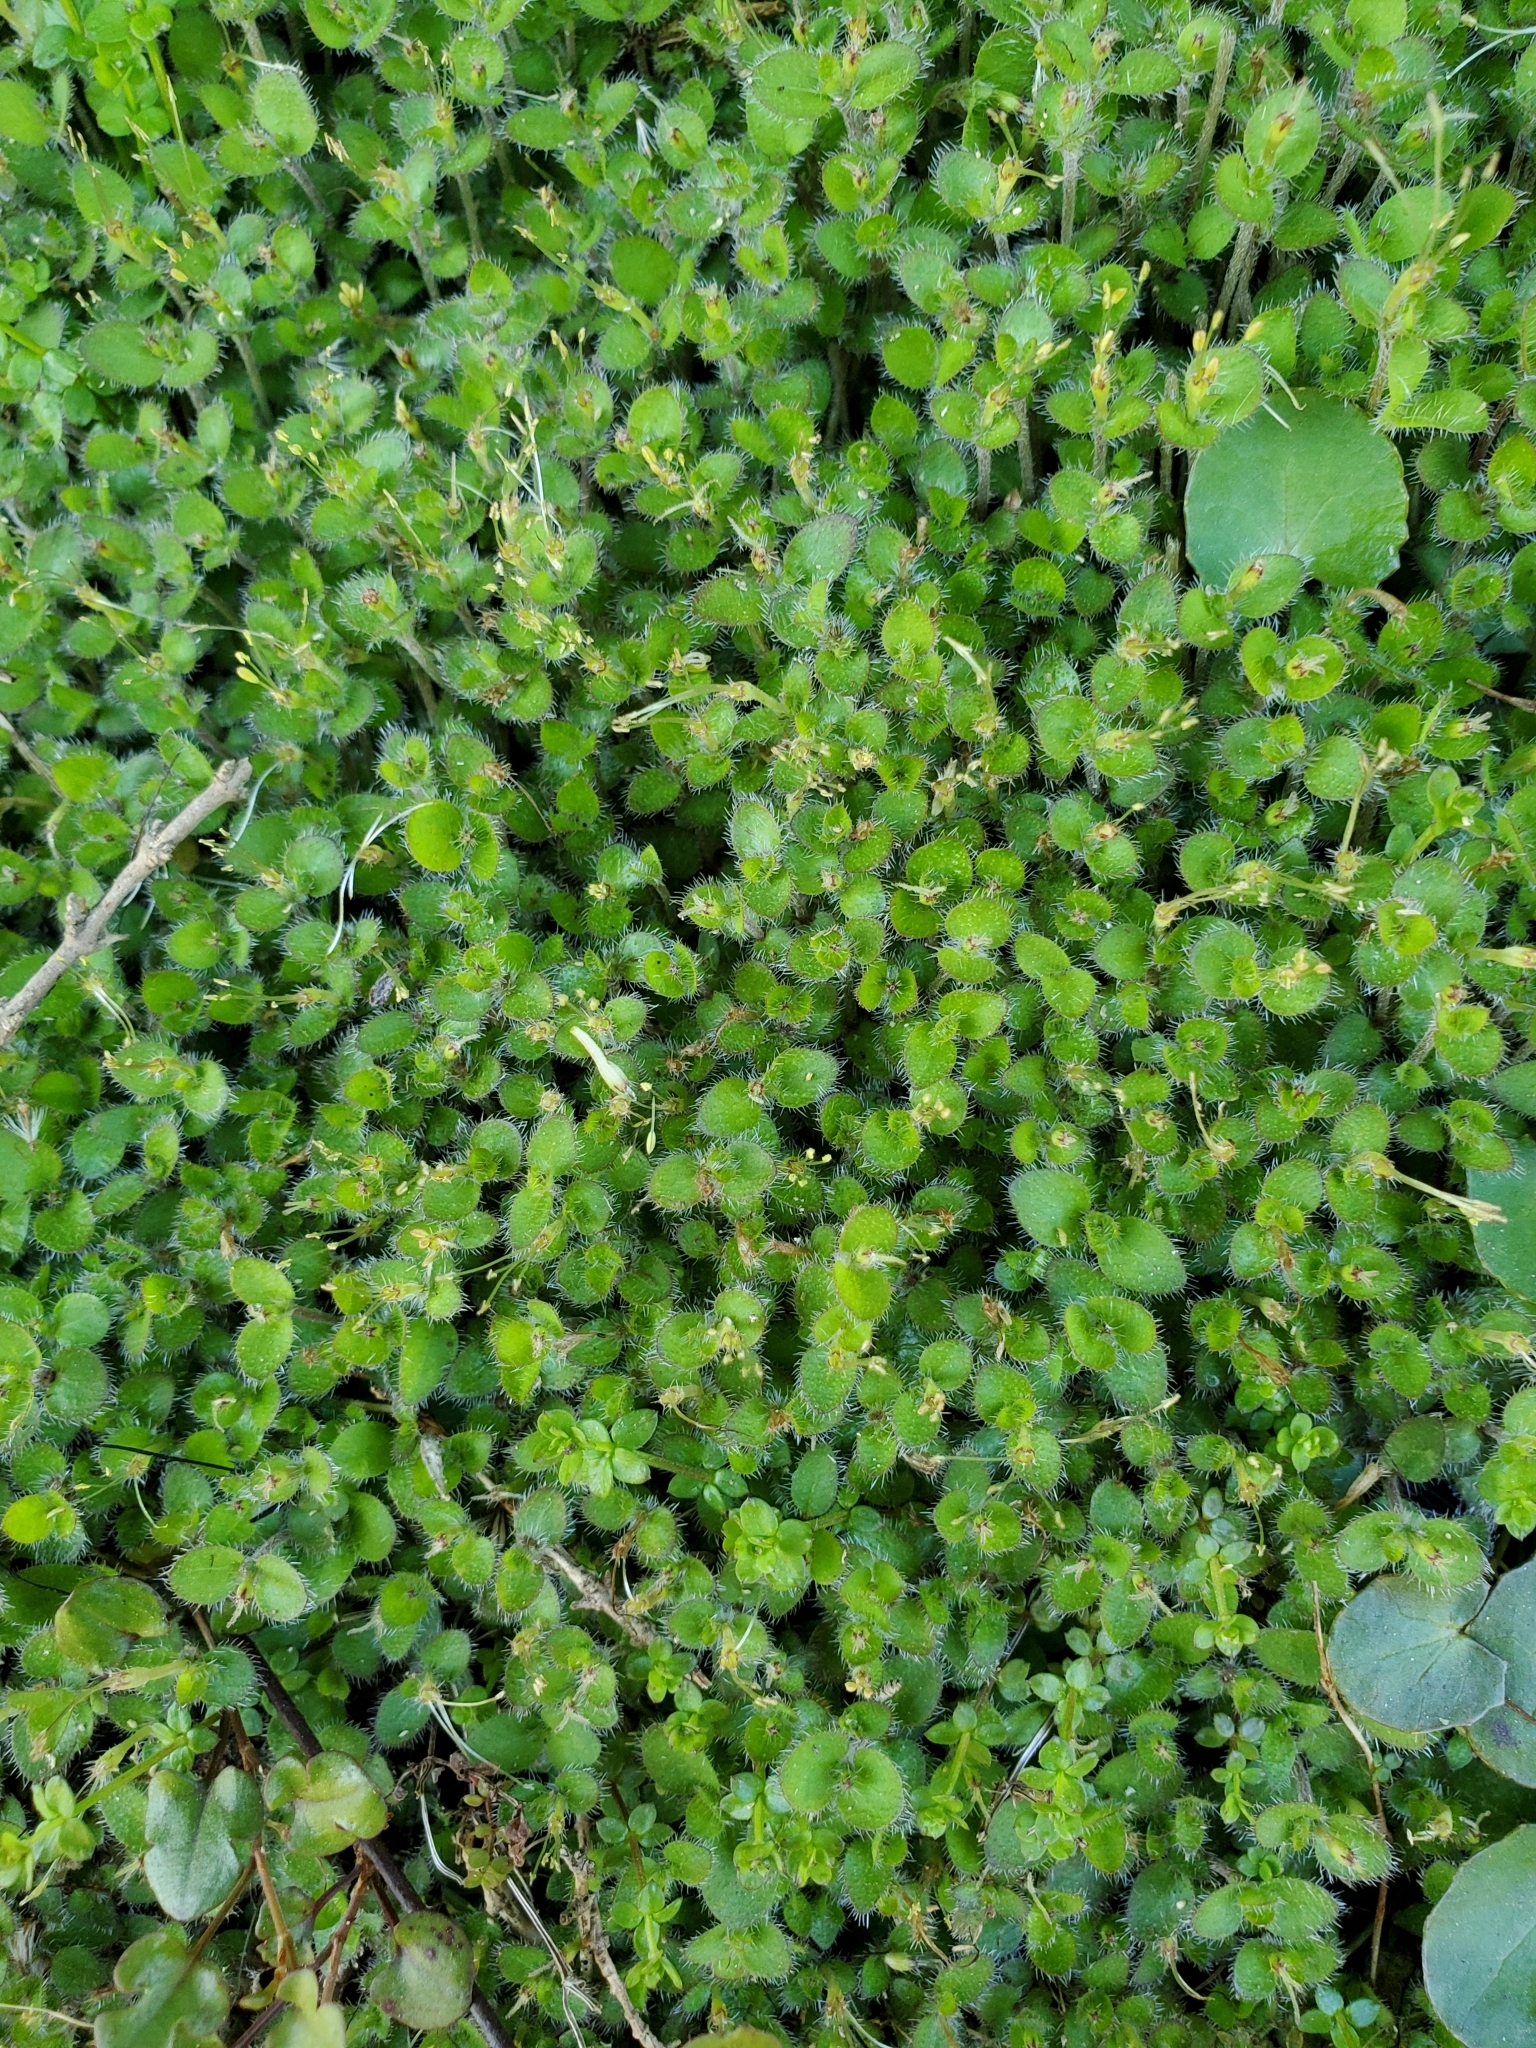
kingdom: Plantae
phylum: Tracheophyta
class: Magnoliopsida
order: Gentianales
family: Rubiaceae
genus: Leptostigma
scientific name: Leptostigma setulosum
